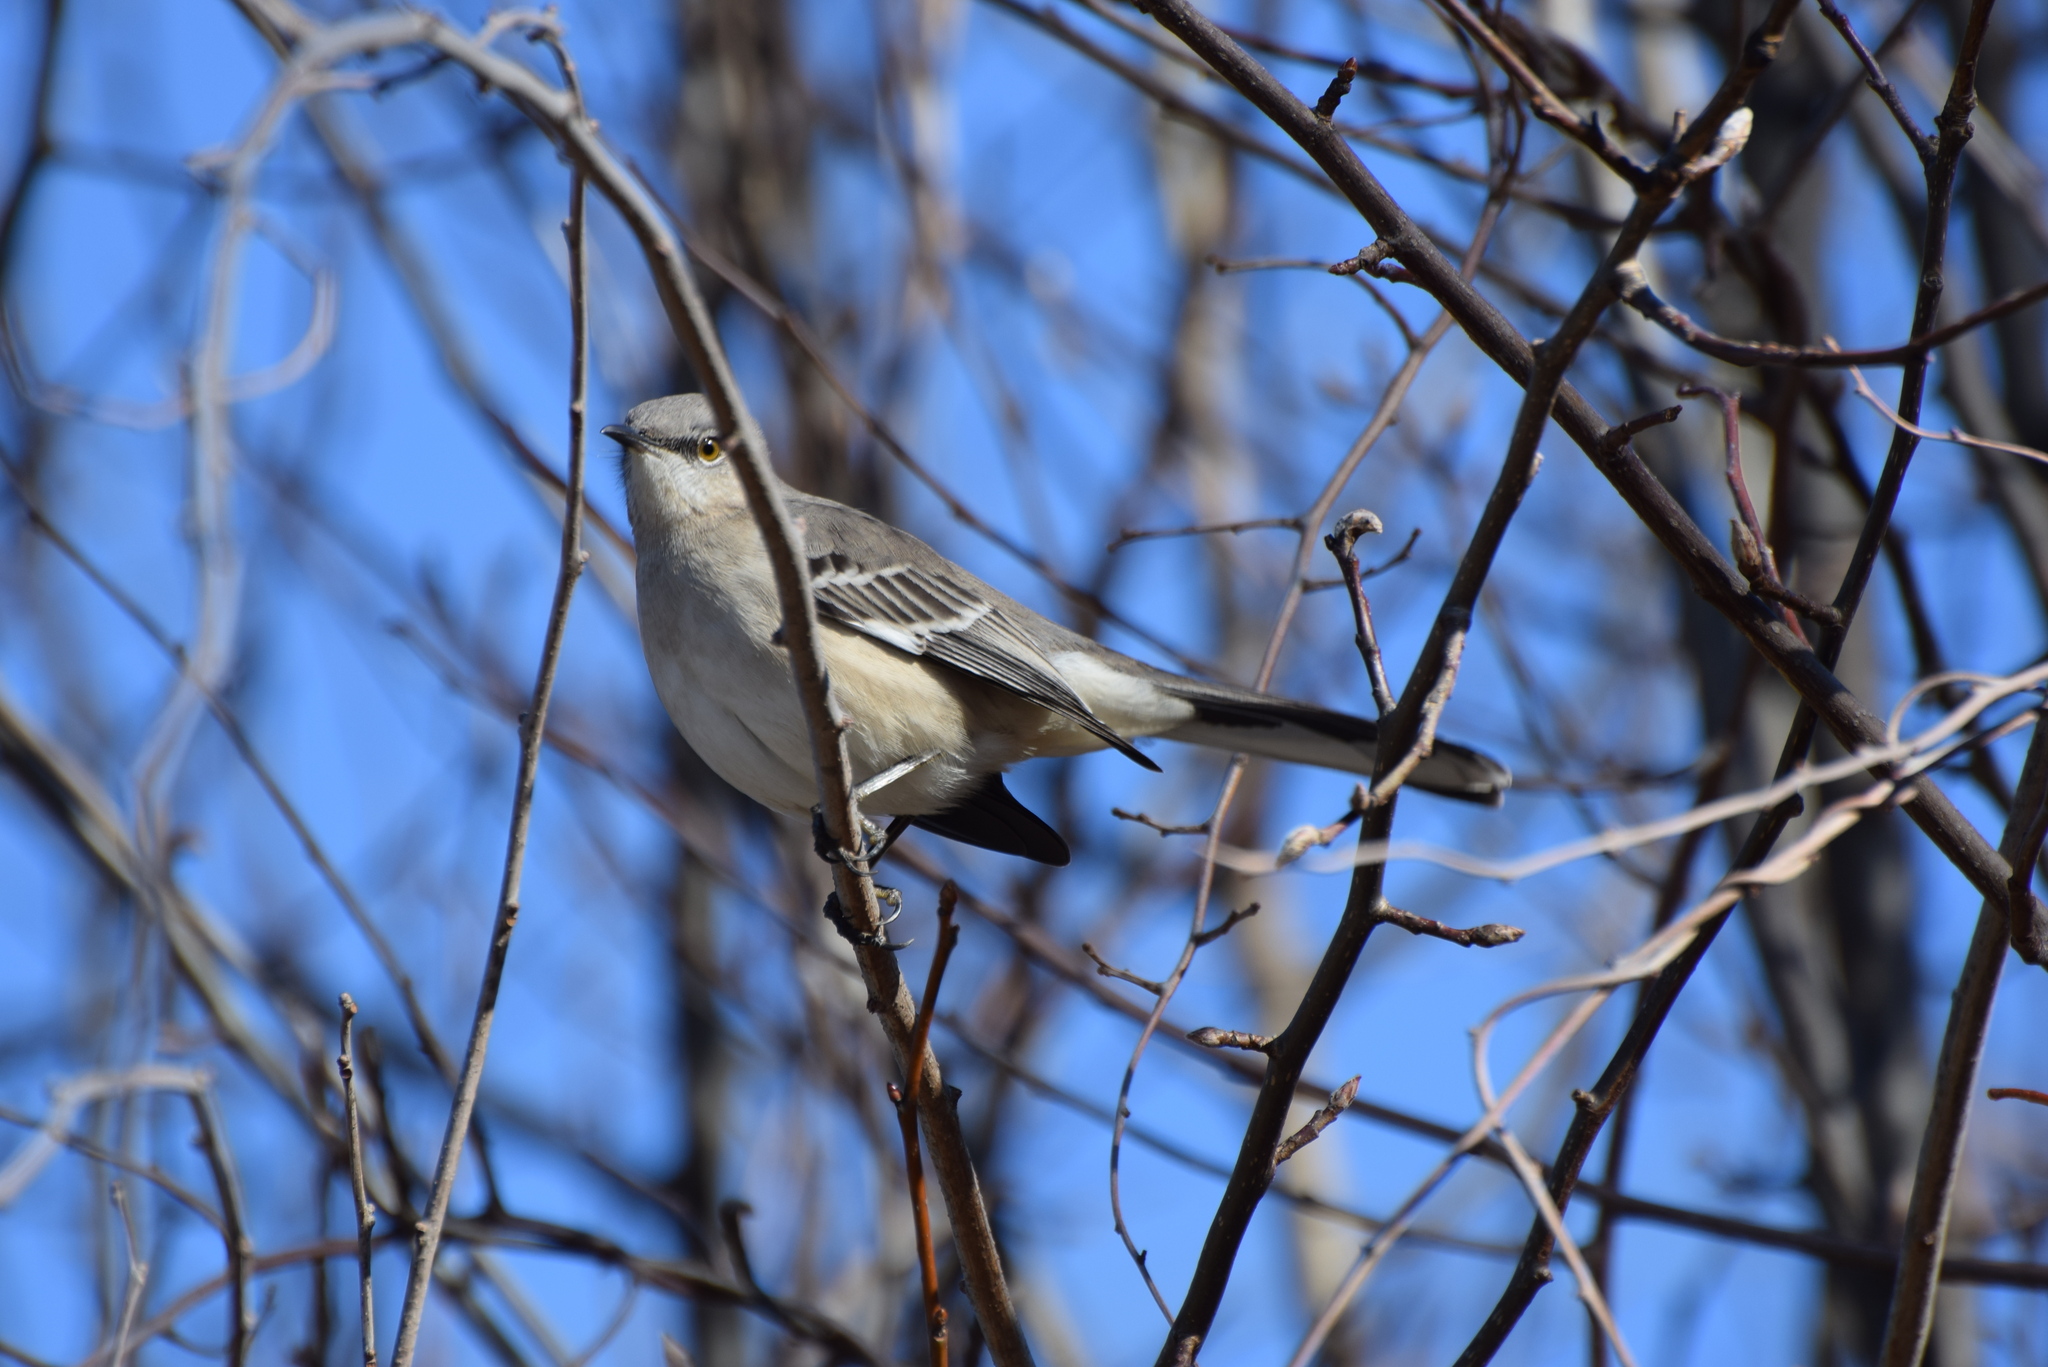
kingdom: Animalia
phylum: Chordata
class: Aves
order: Passeriformes
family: Mimidae
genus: Mimus
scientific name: Mimus polyglottos
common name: Northern mockingbird
